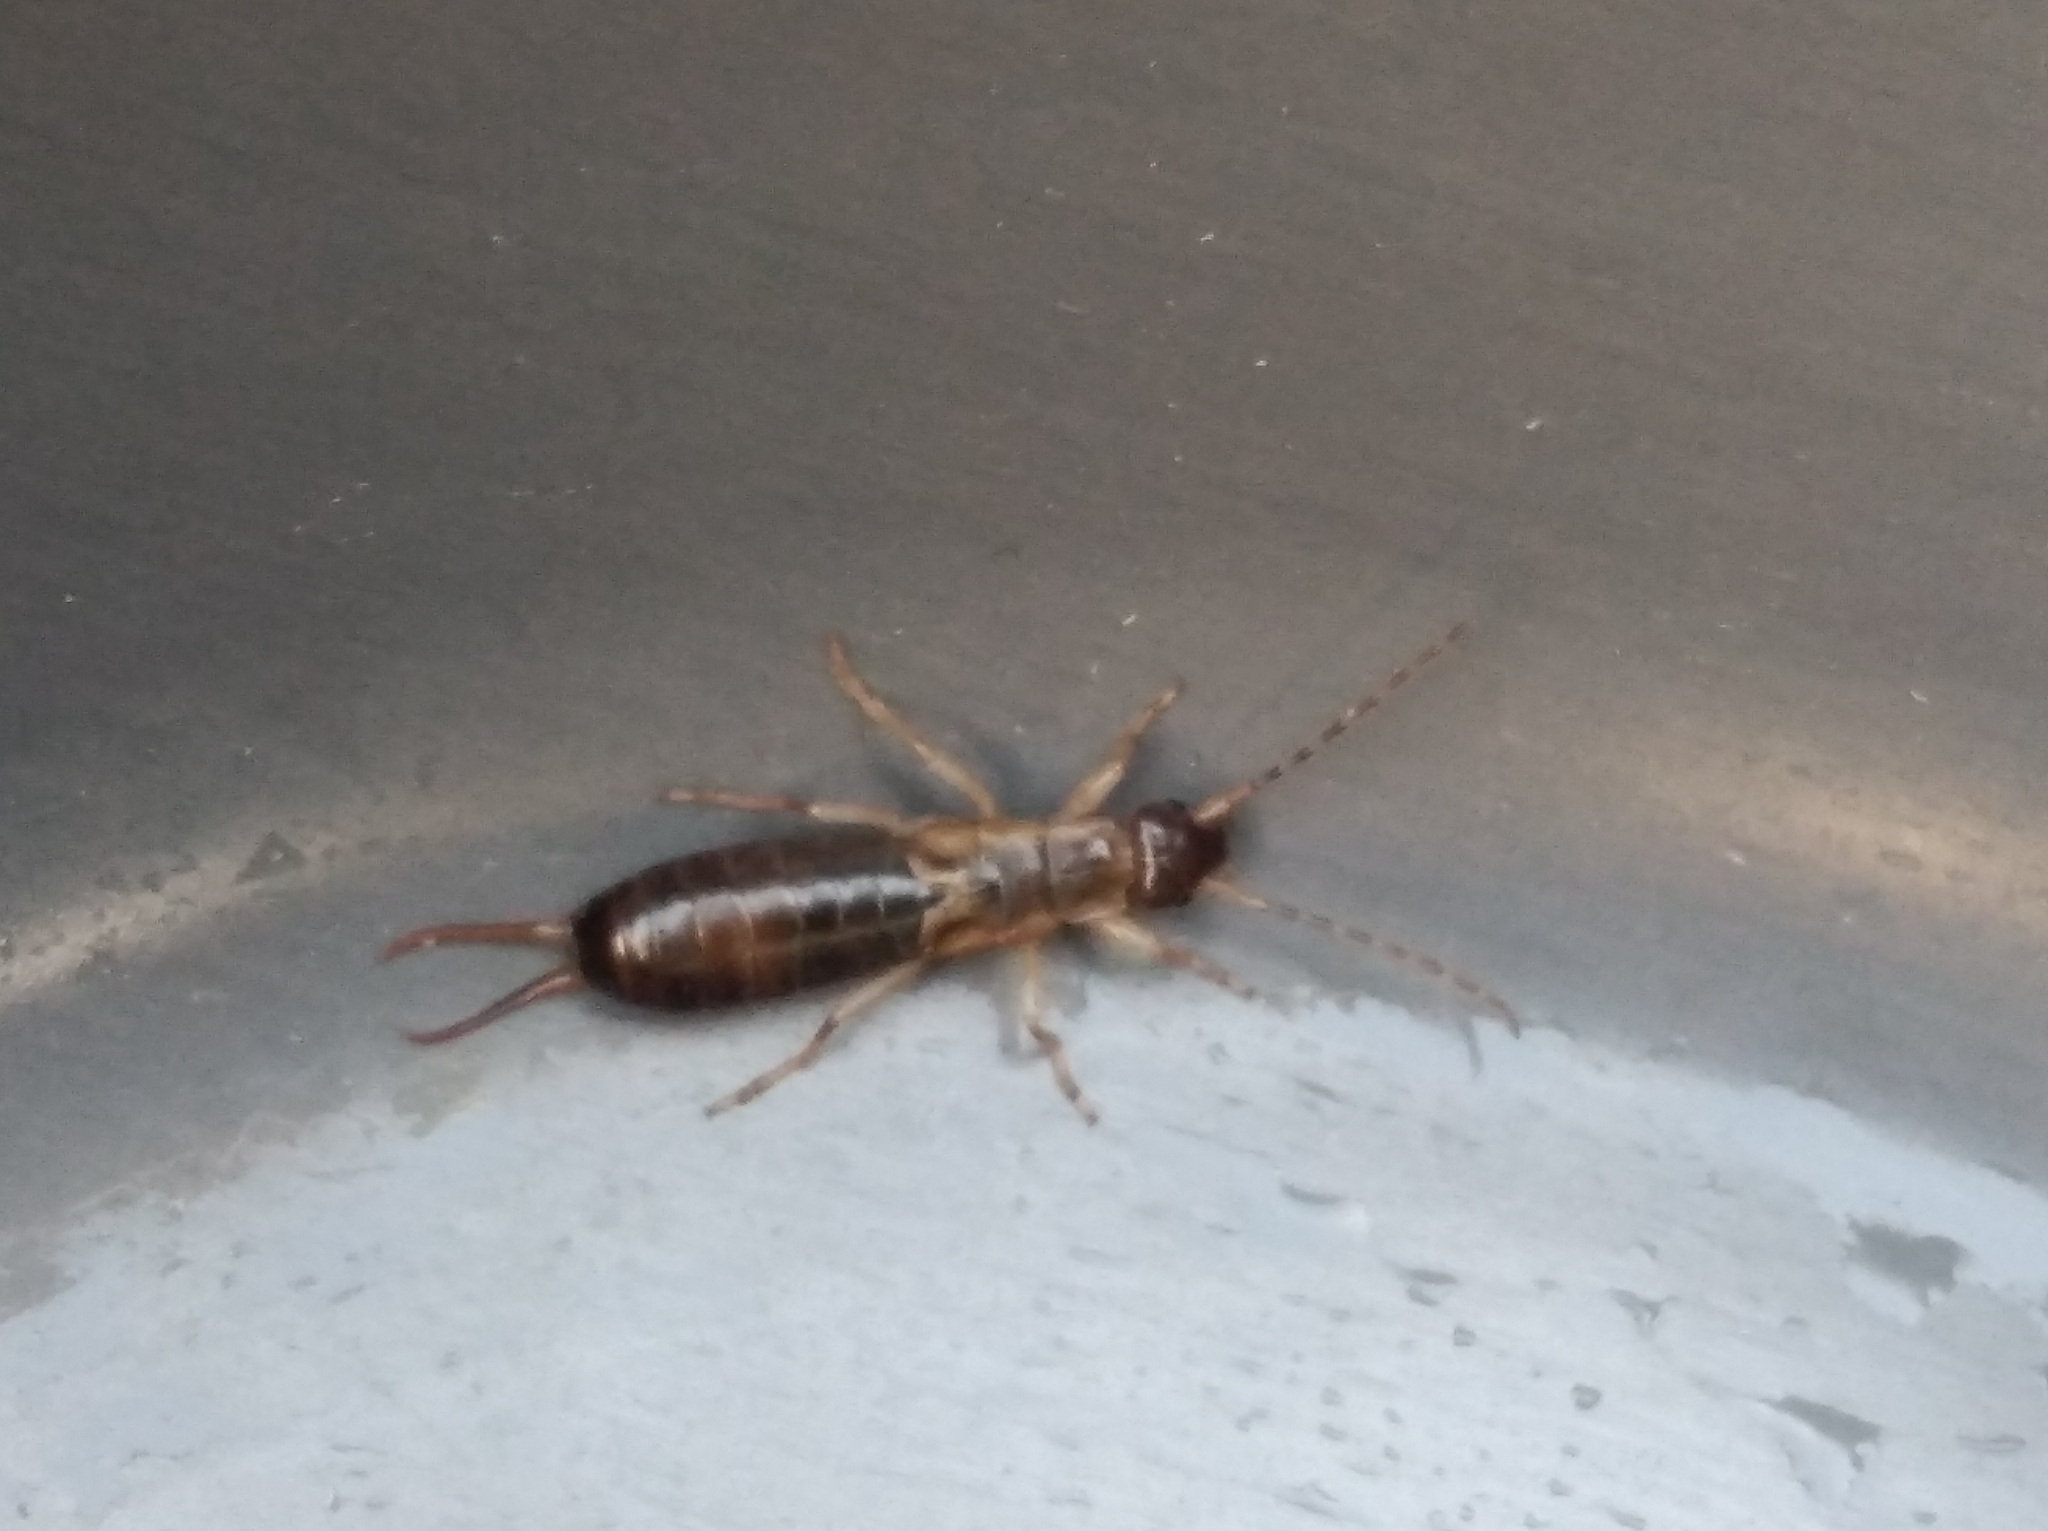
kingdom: Animalia
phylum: Arthropoda
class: Insecta
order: Dermaptera
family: Forficulidae
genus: Forficula
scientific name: Forficula
